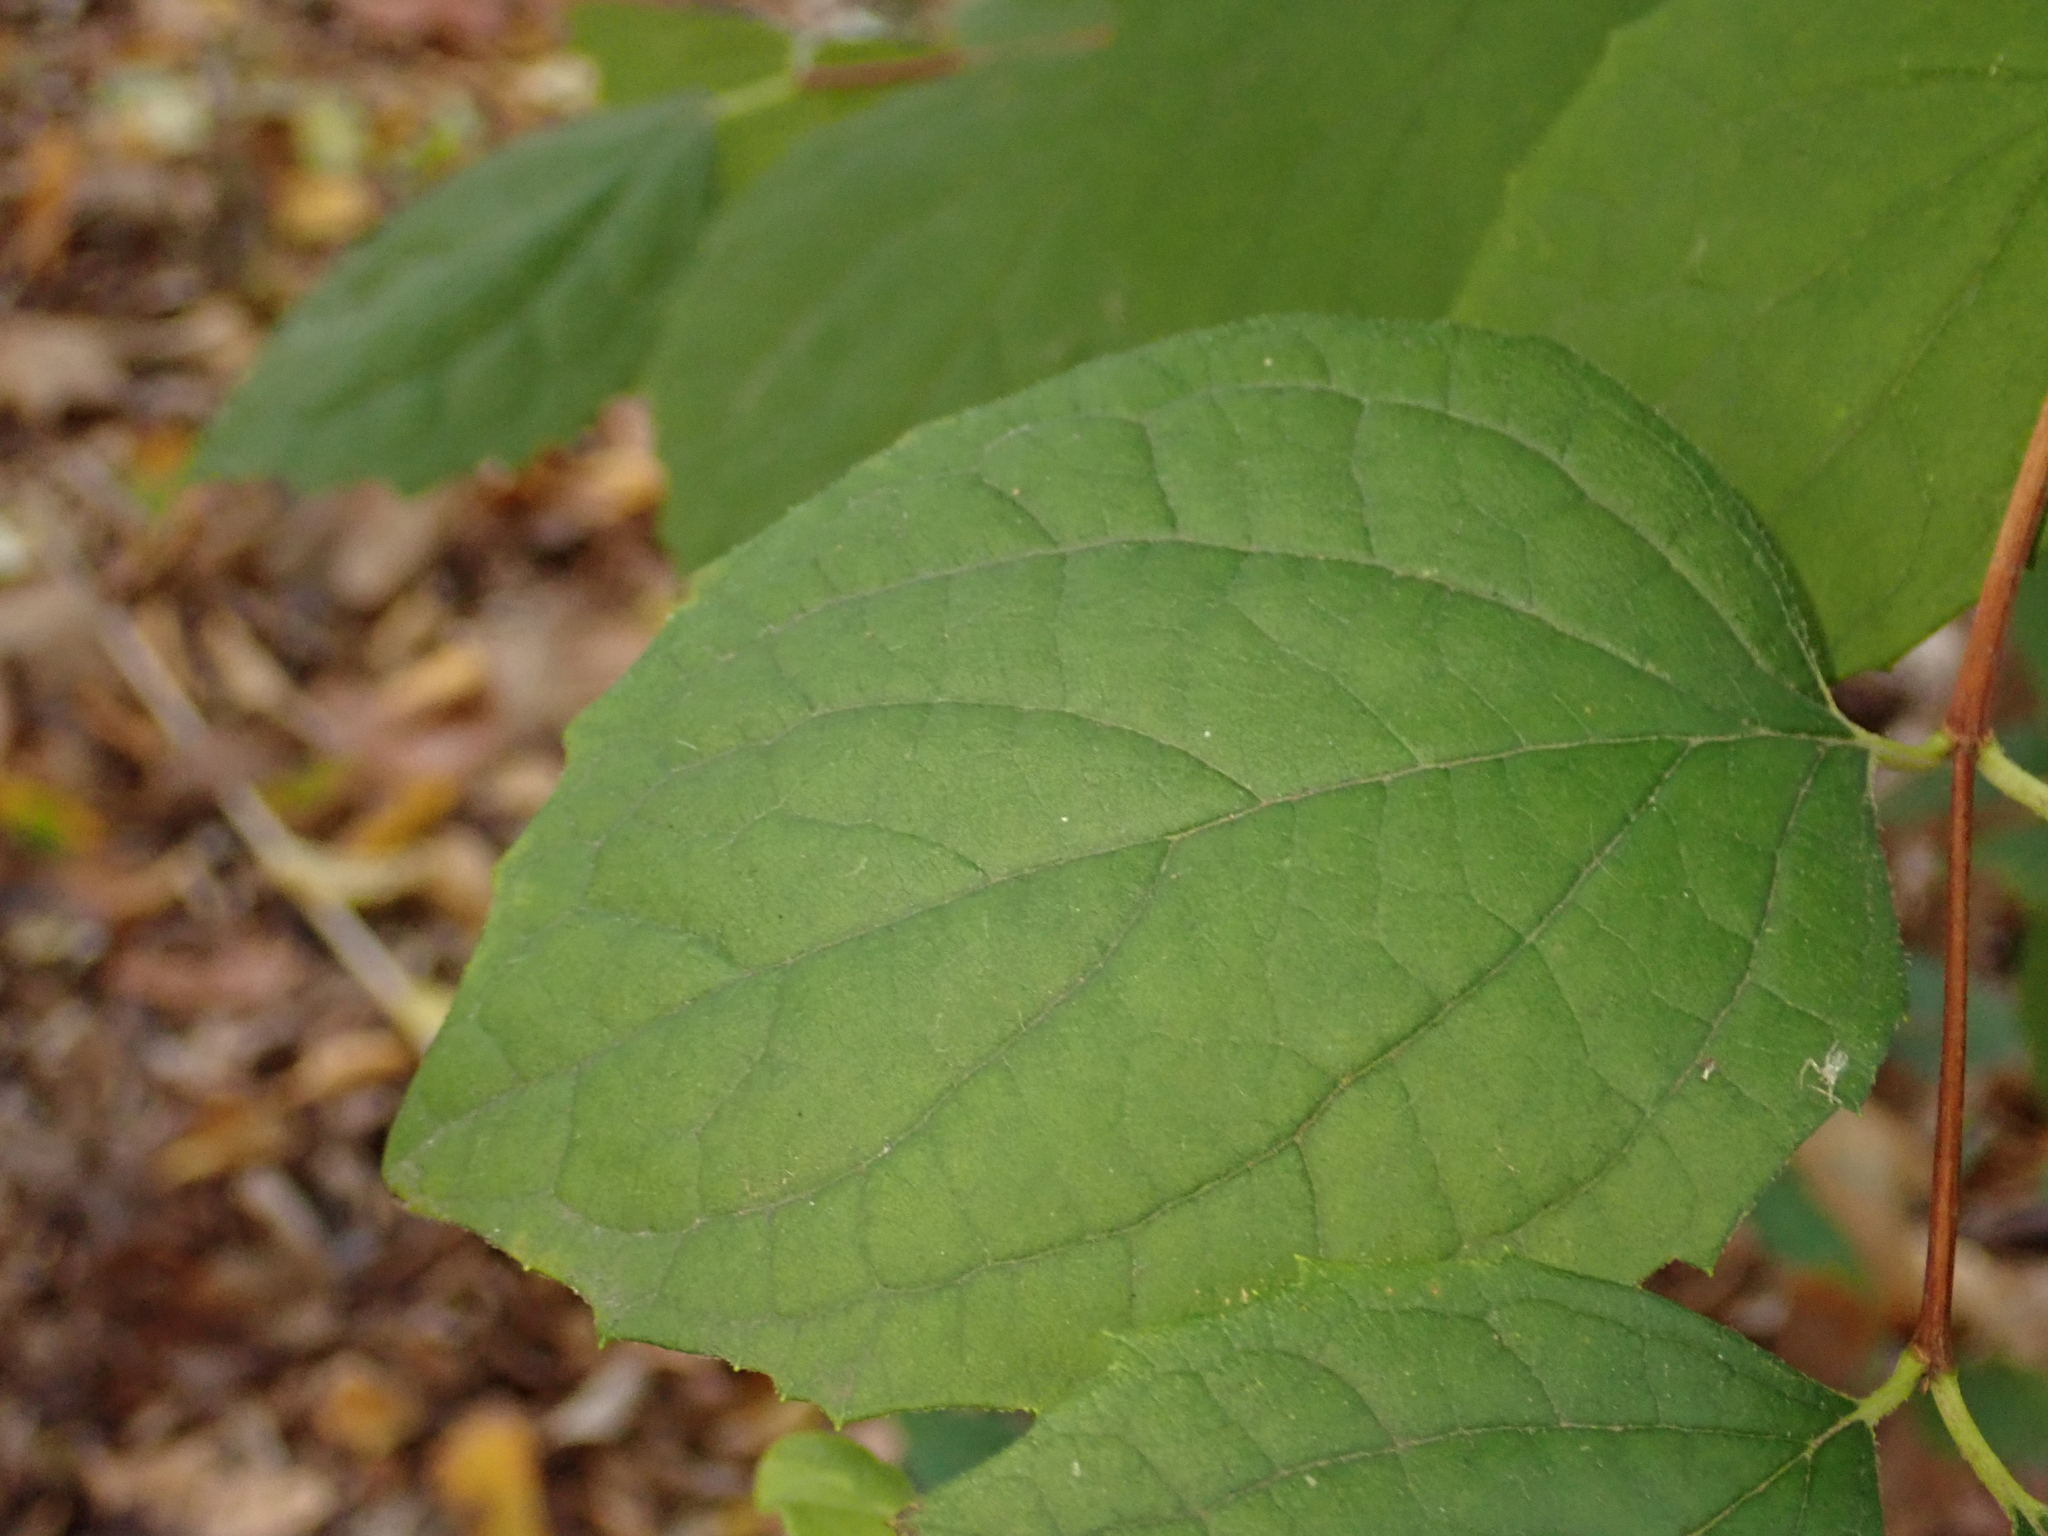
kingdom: Plantae
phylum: Tracheophyta
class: Magnoliopsida
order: Cornales
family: Hydrangeaceae
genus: Philadelphus
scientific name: Philadelphus coronarius
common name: Mock orange
